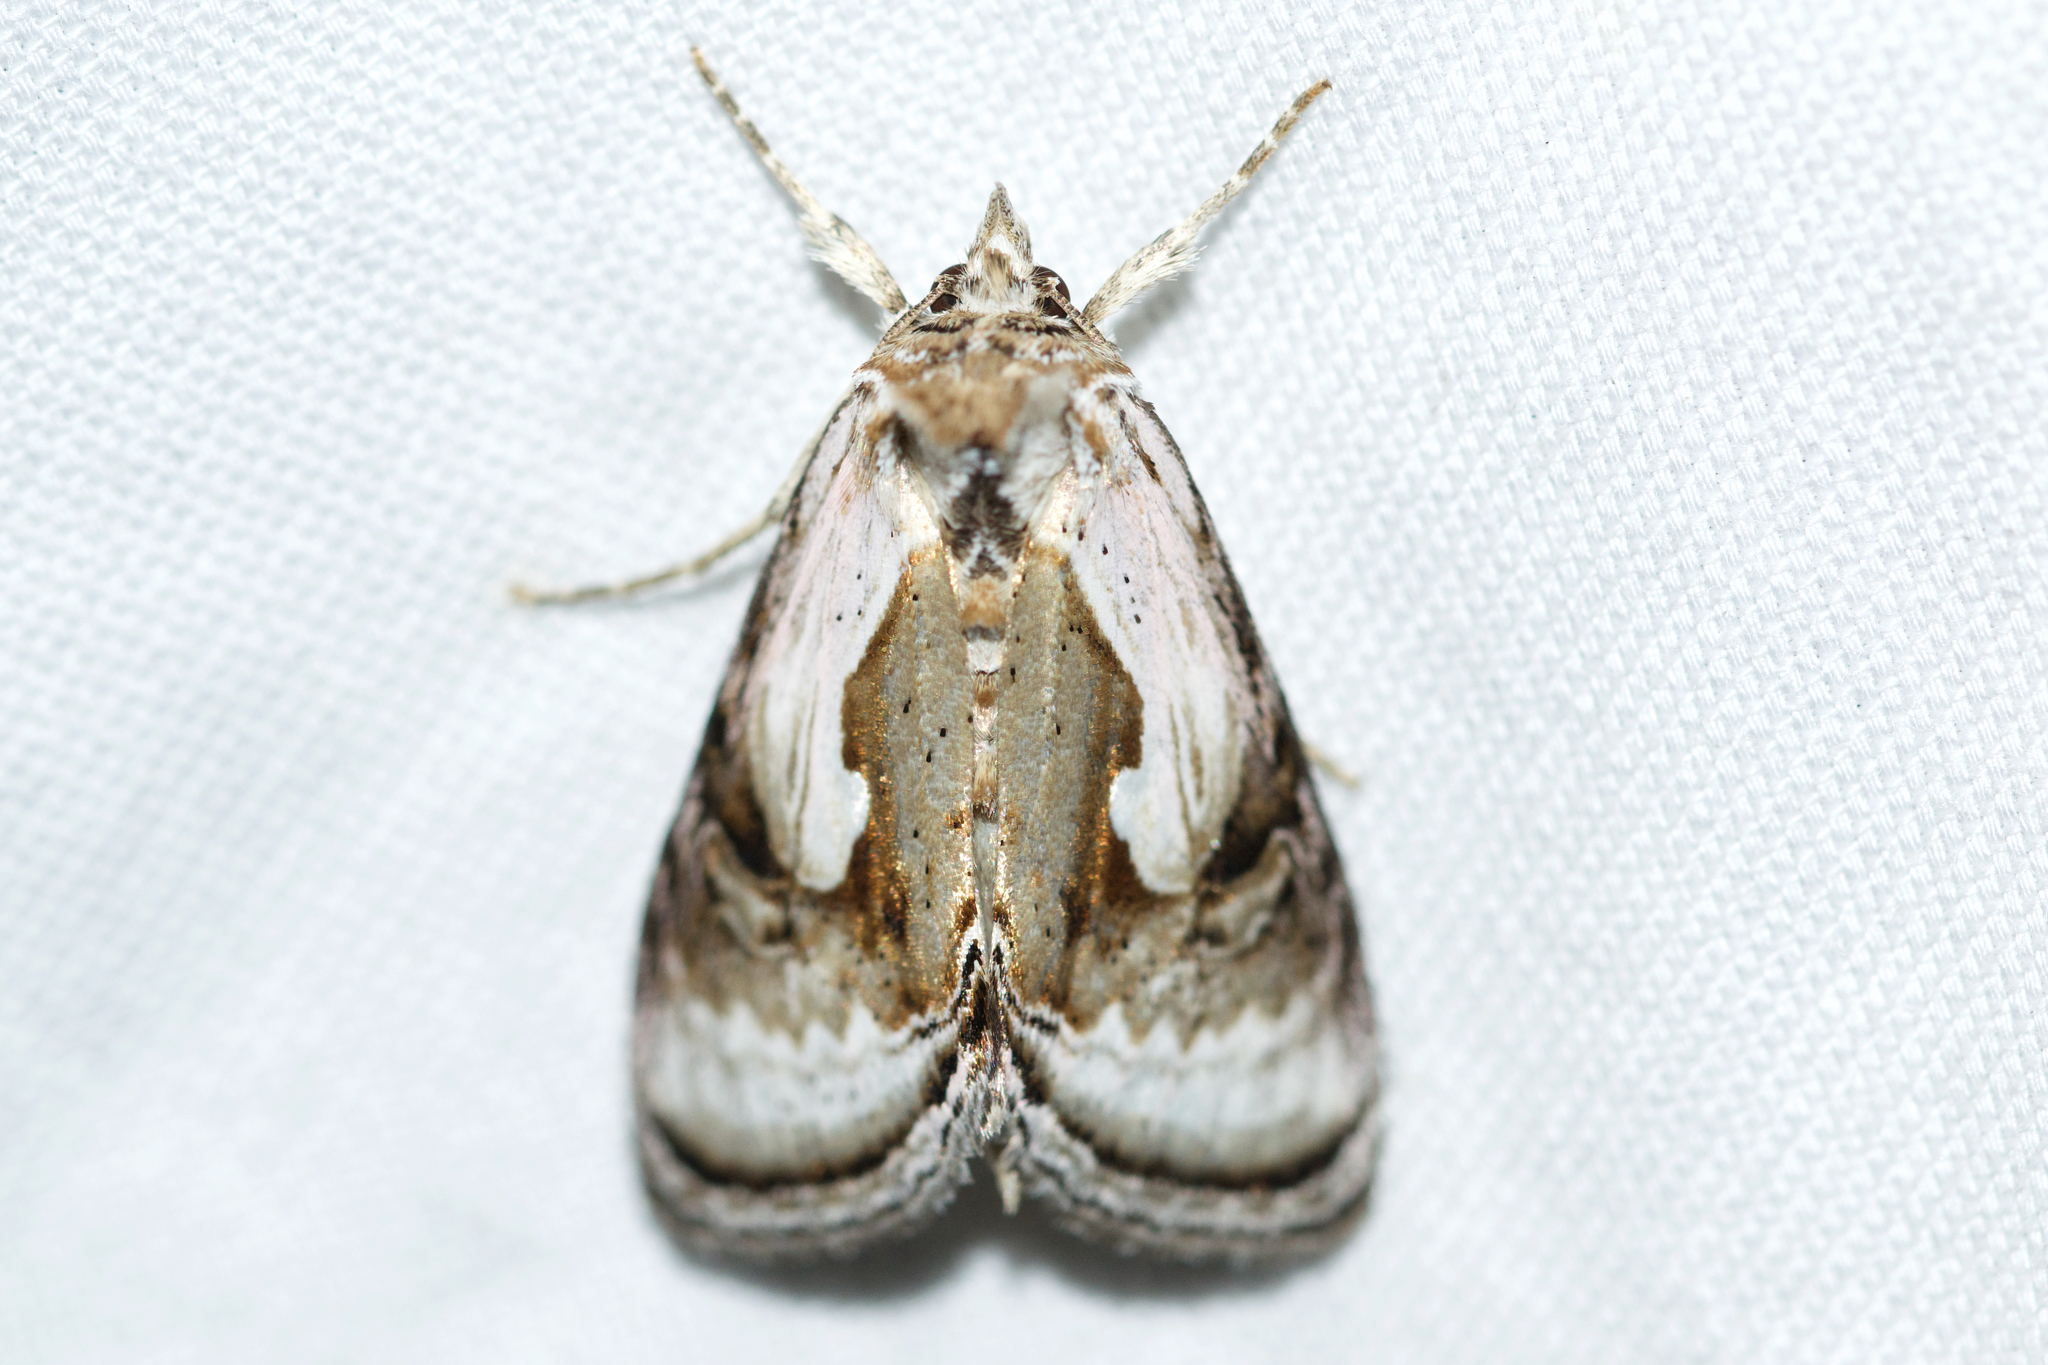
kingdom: Animalia
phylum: Arthropoda
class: Insecta
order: Lepidoptera
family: Noctuidae
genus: Chrysanympha
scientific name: Chrysanympha formosa
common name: Formosa looper moth
